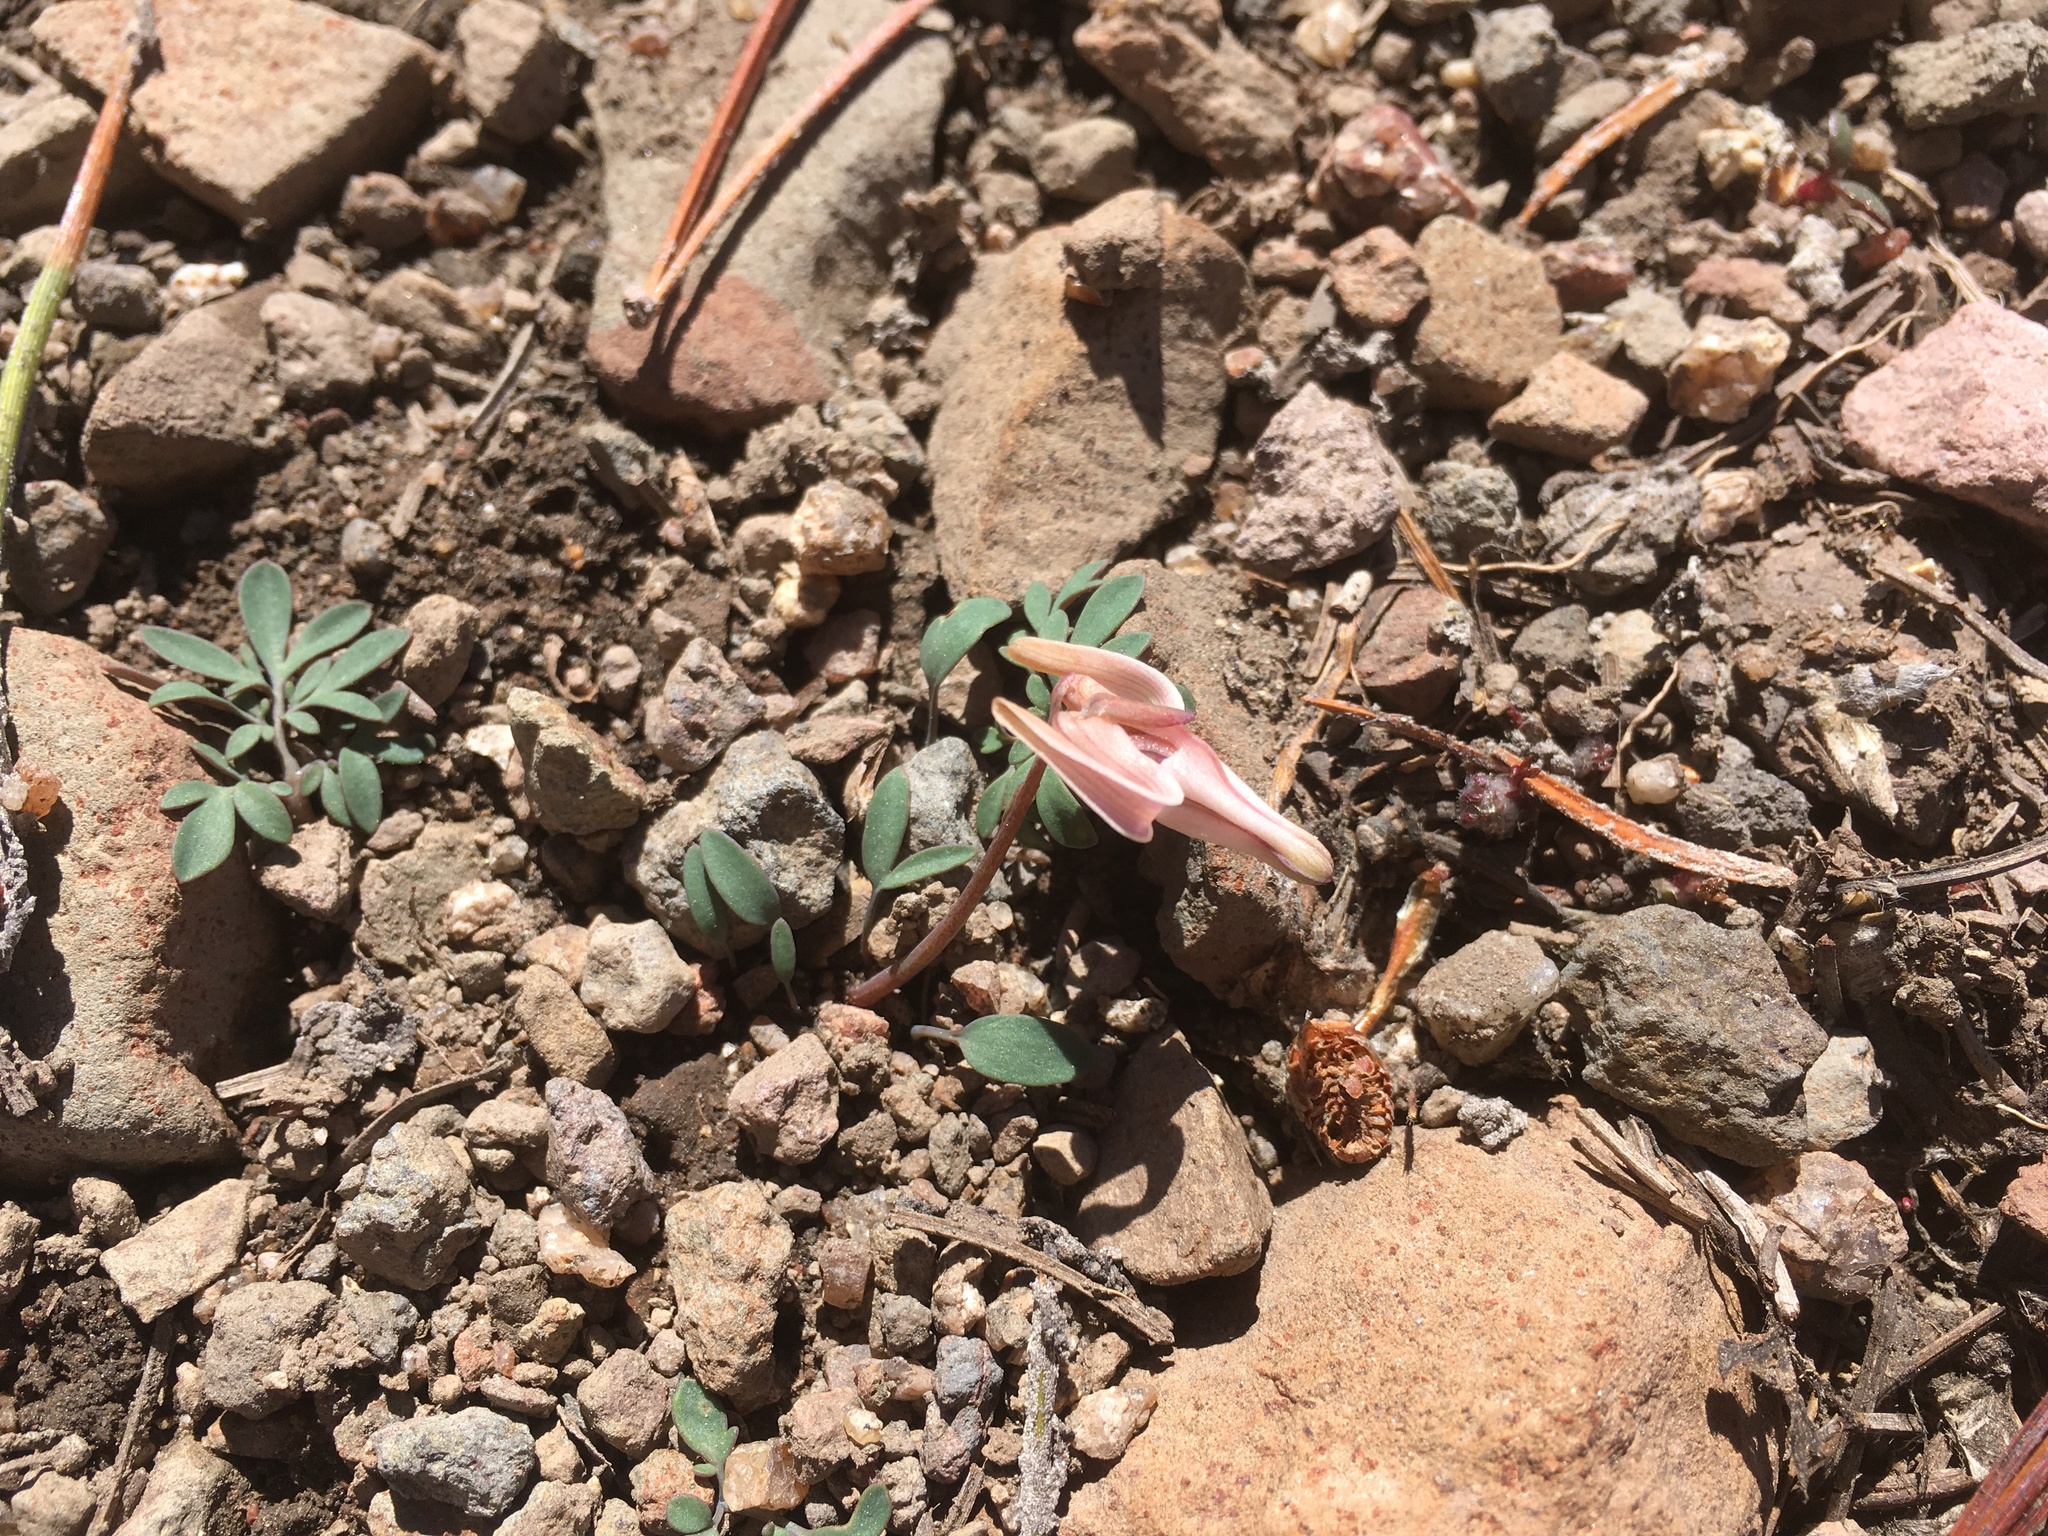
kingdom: Plantae
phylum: Tracheophyta
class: Magnoliopsida
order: Ranunculales
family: Papaveraceae
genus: Dicentra
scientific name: Dicentra uniflora
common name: Steer's-head
